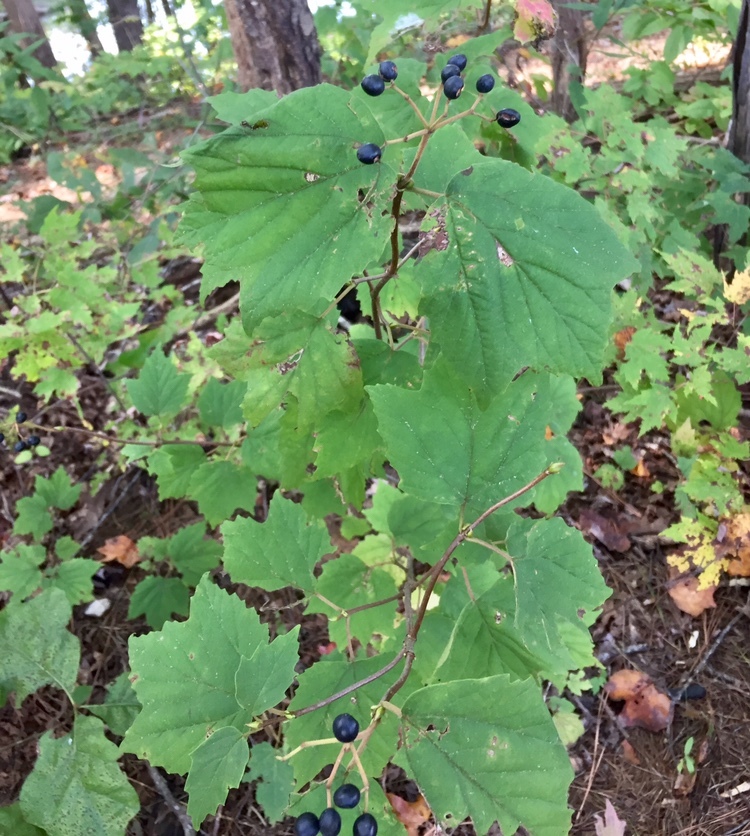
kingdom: Plantae
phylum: Tracheophyta
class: Magnoliopsida
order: Dipsacales
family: Viburnaceae
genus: Viburnum
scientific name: Viburnum acerifolium
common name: Dockmackie
